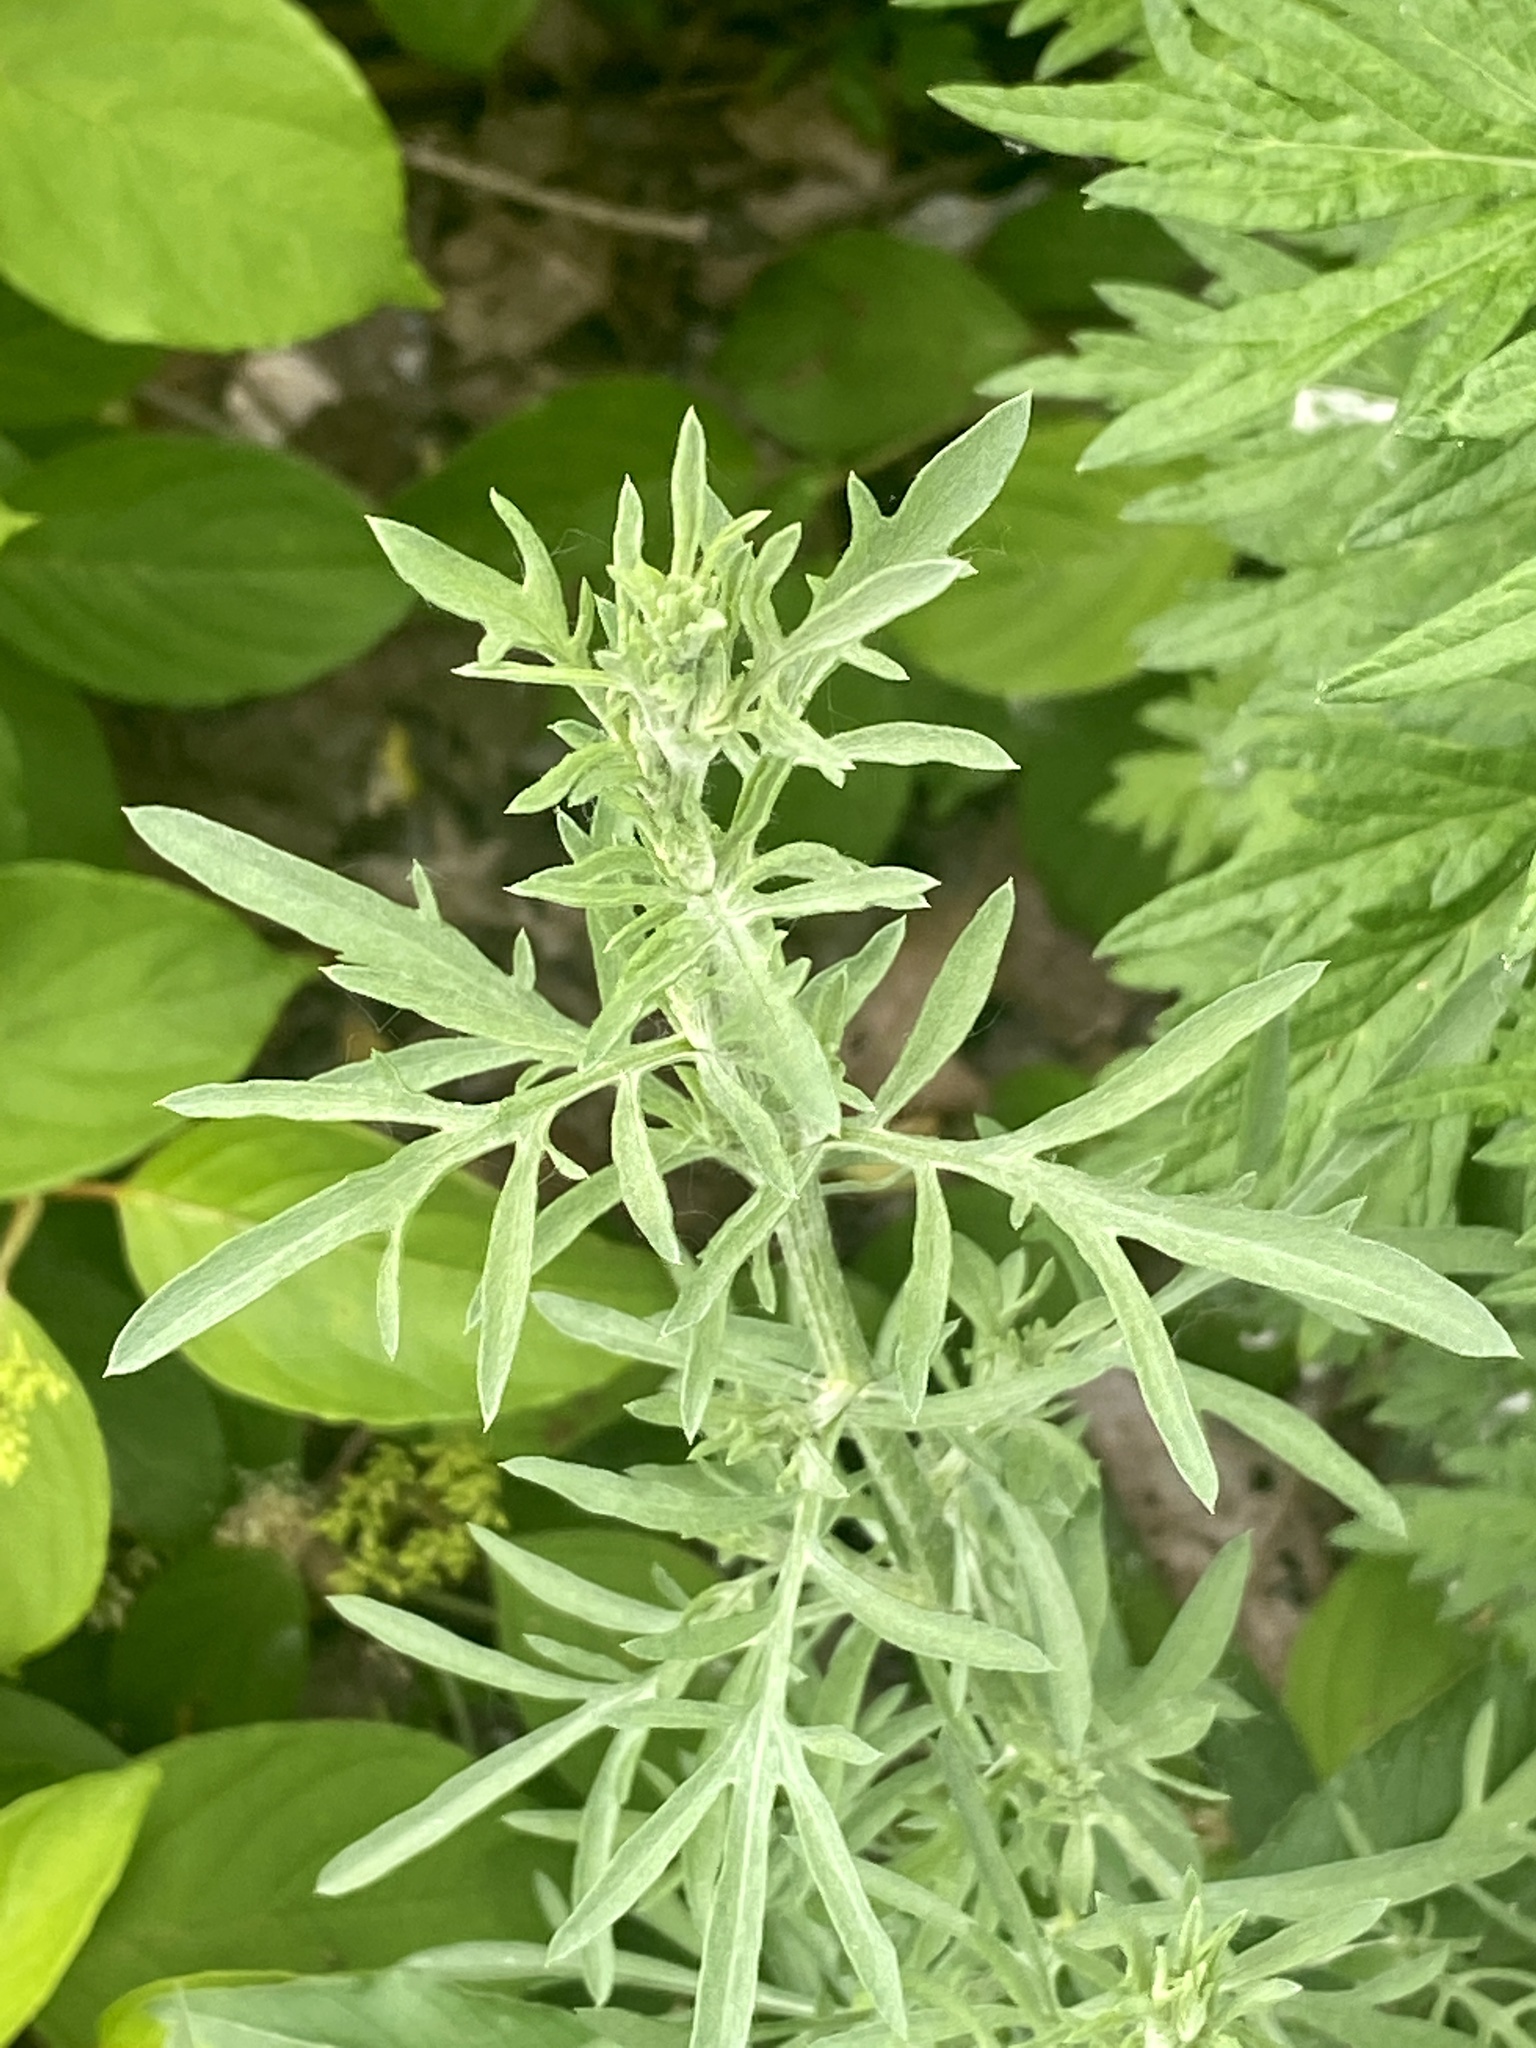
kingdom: Plantae
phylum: Tracheophyta
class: Magnoliopsida
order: Asterales
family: Asteraceae
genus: Centaurea
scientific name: Centaurea stoebe
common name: Spotted knapweed
